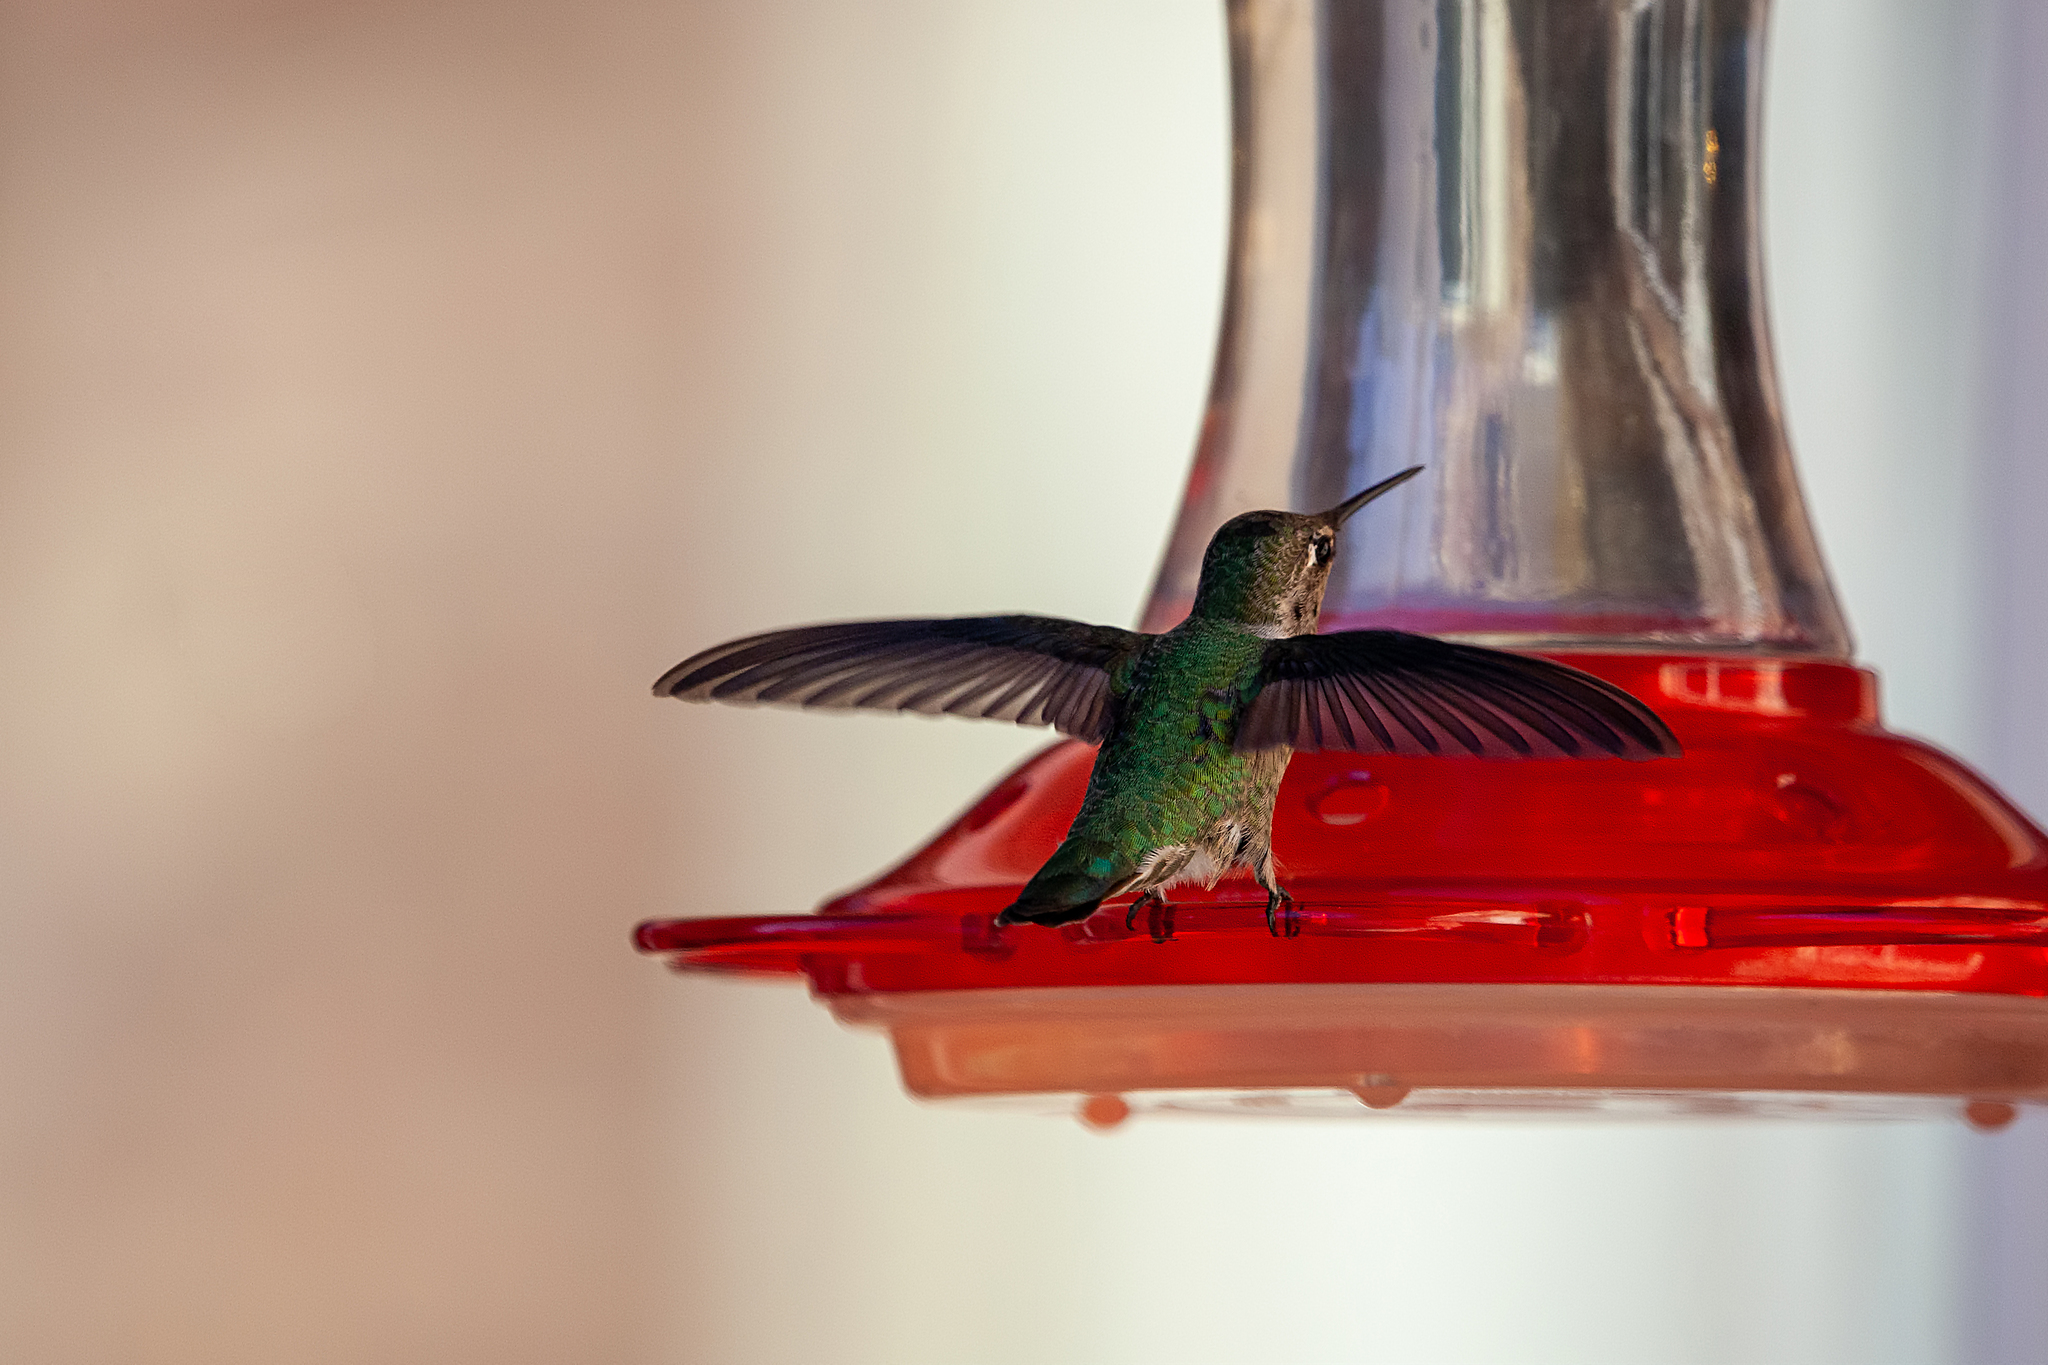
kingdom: Animalia
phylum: Chordata
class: Aves
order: Apodiformes
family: Trochilidae
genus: Calypte
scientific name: Calypte anna
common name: Anna's hummingbird
